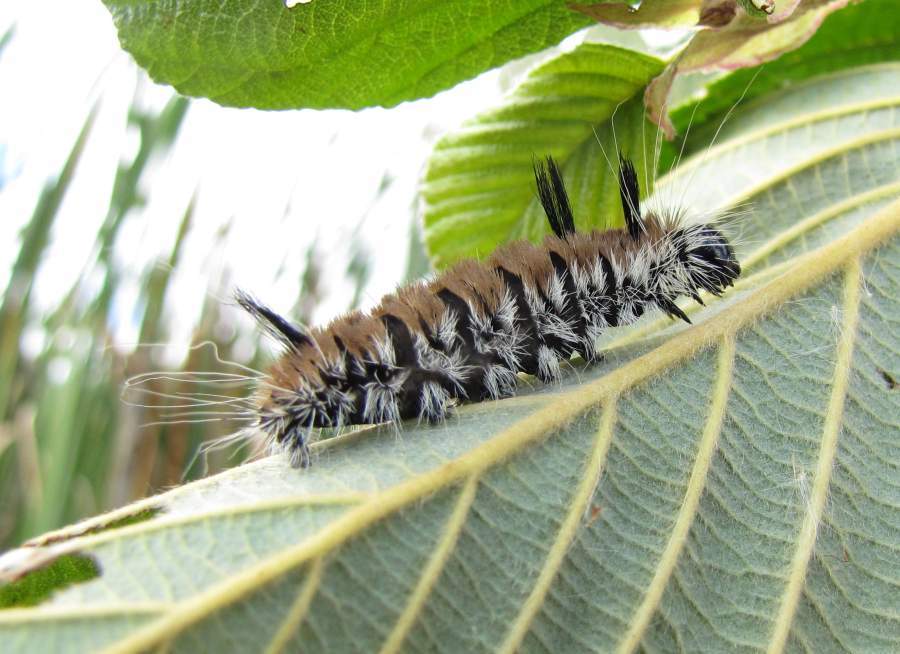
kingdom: Animalia
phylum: Arthropoda
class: Insecta
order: Lepidoptera
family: Noctuidae
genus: Acronicta
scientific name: Acronicta insita
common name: Large gray dagger
